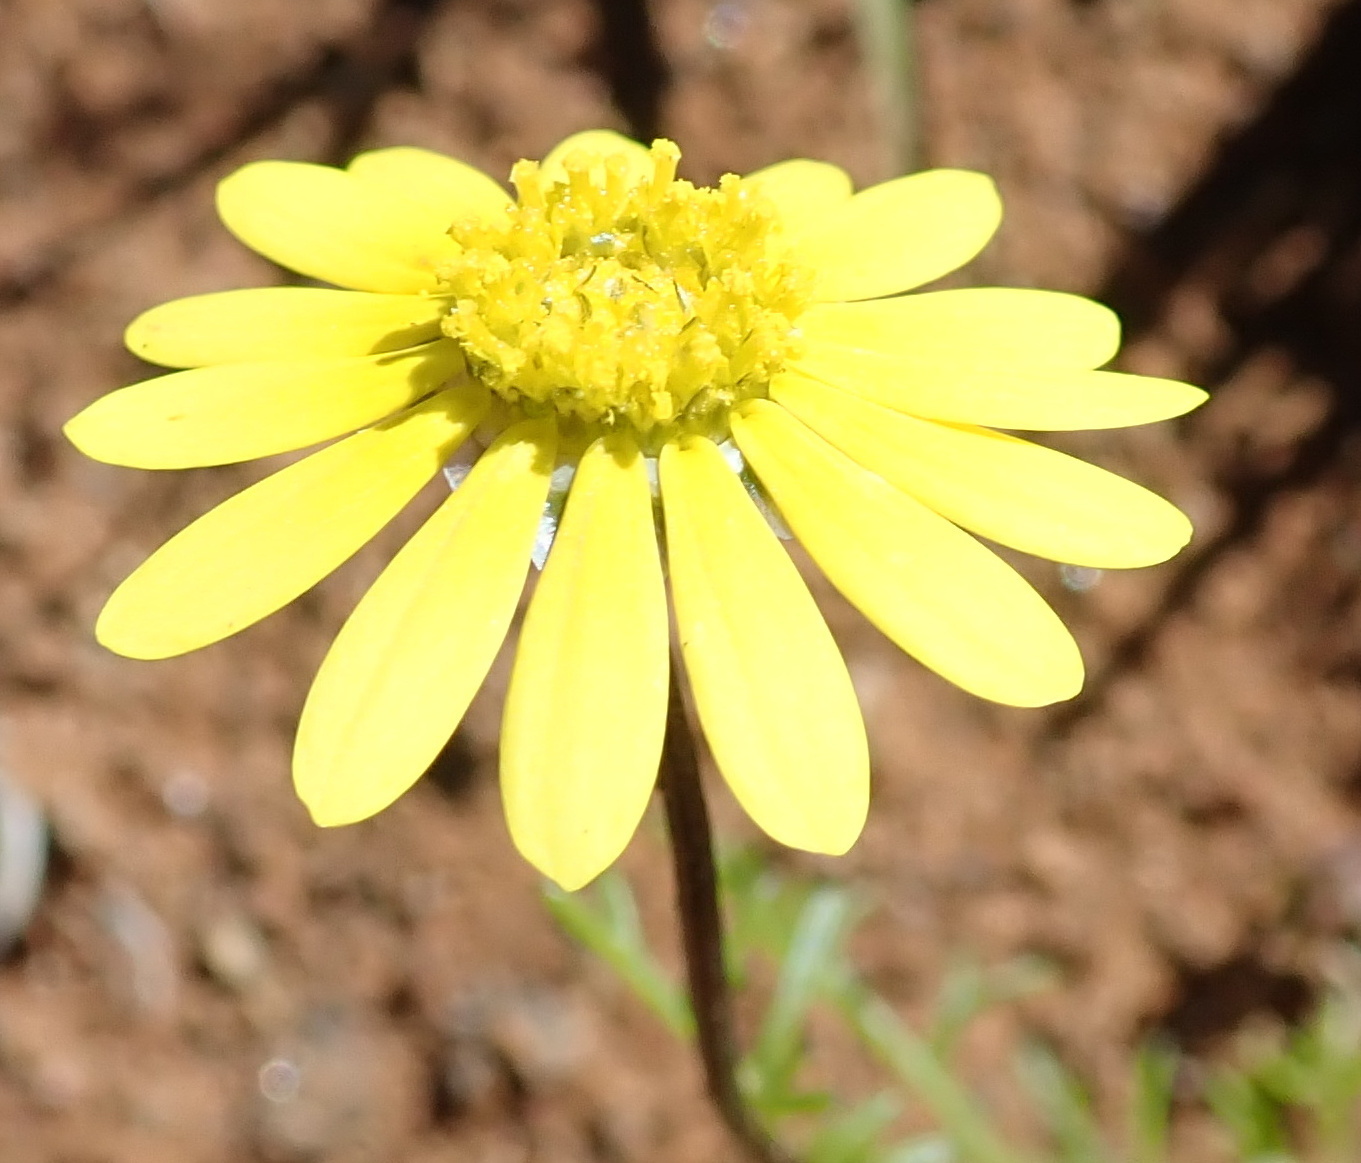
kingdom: Plantae
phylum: Tracheophyta
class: Magnoliopsida
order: Asterales
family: Asteraceae
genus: Ursinia
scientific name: Ursinia nana
